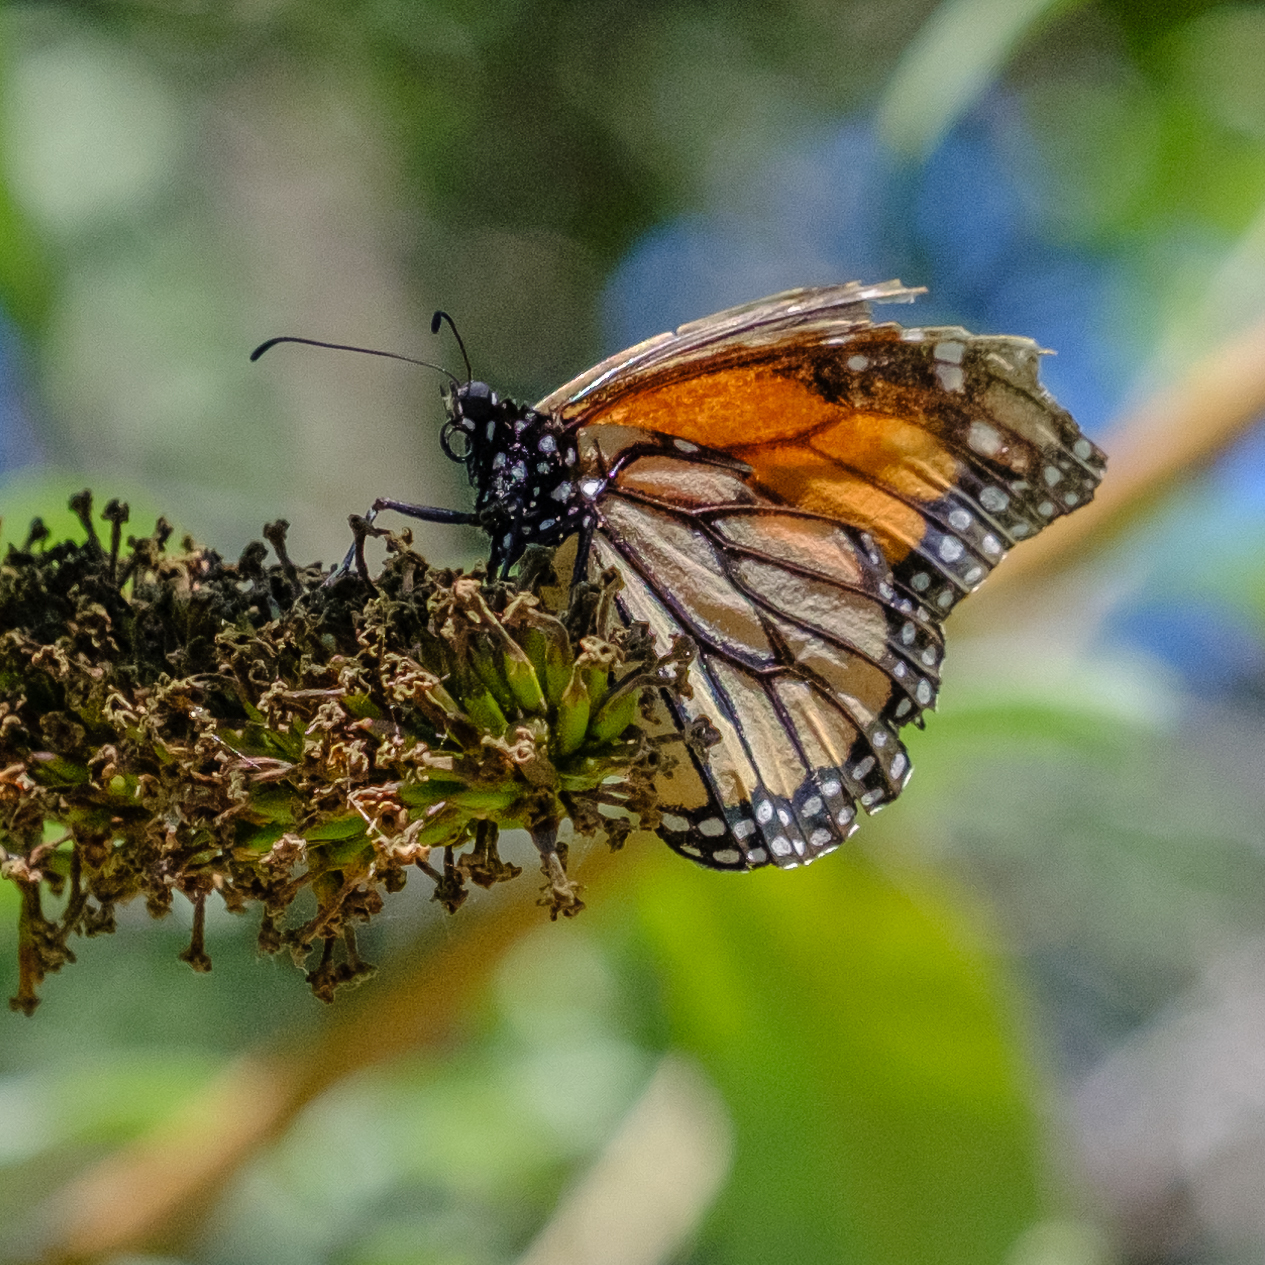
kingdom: Animalia
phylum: Arthropoda
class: Insecta
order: Lepidoptera
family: Nymphalidae
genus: Danaus
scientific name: Danaus plexippus
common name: Monarch
